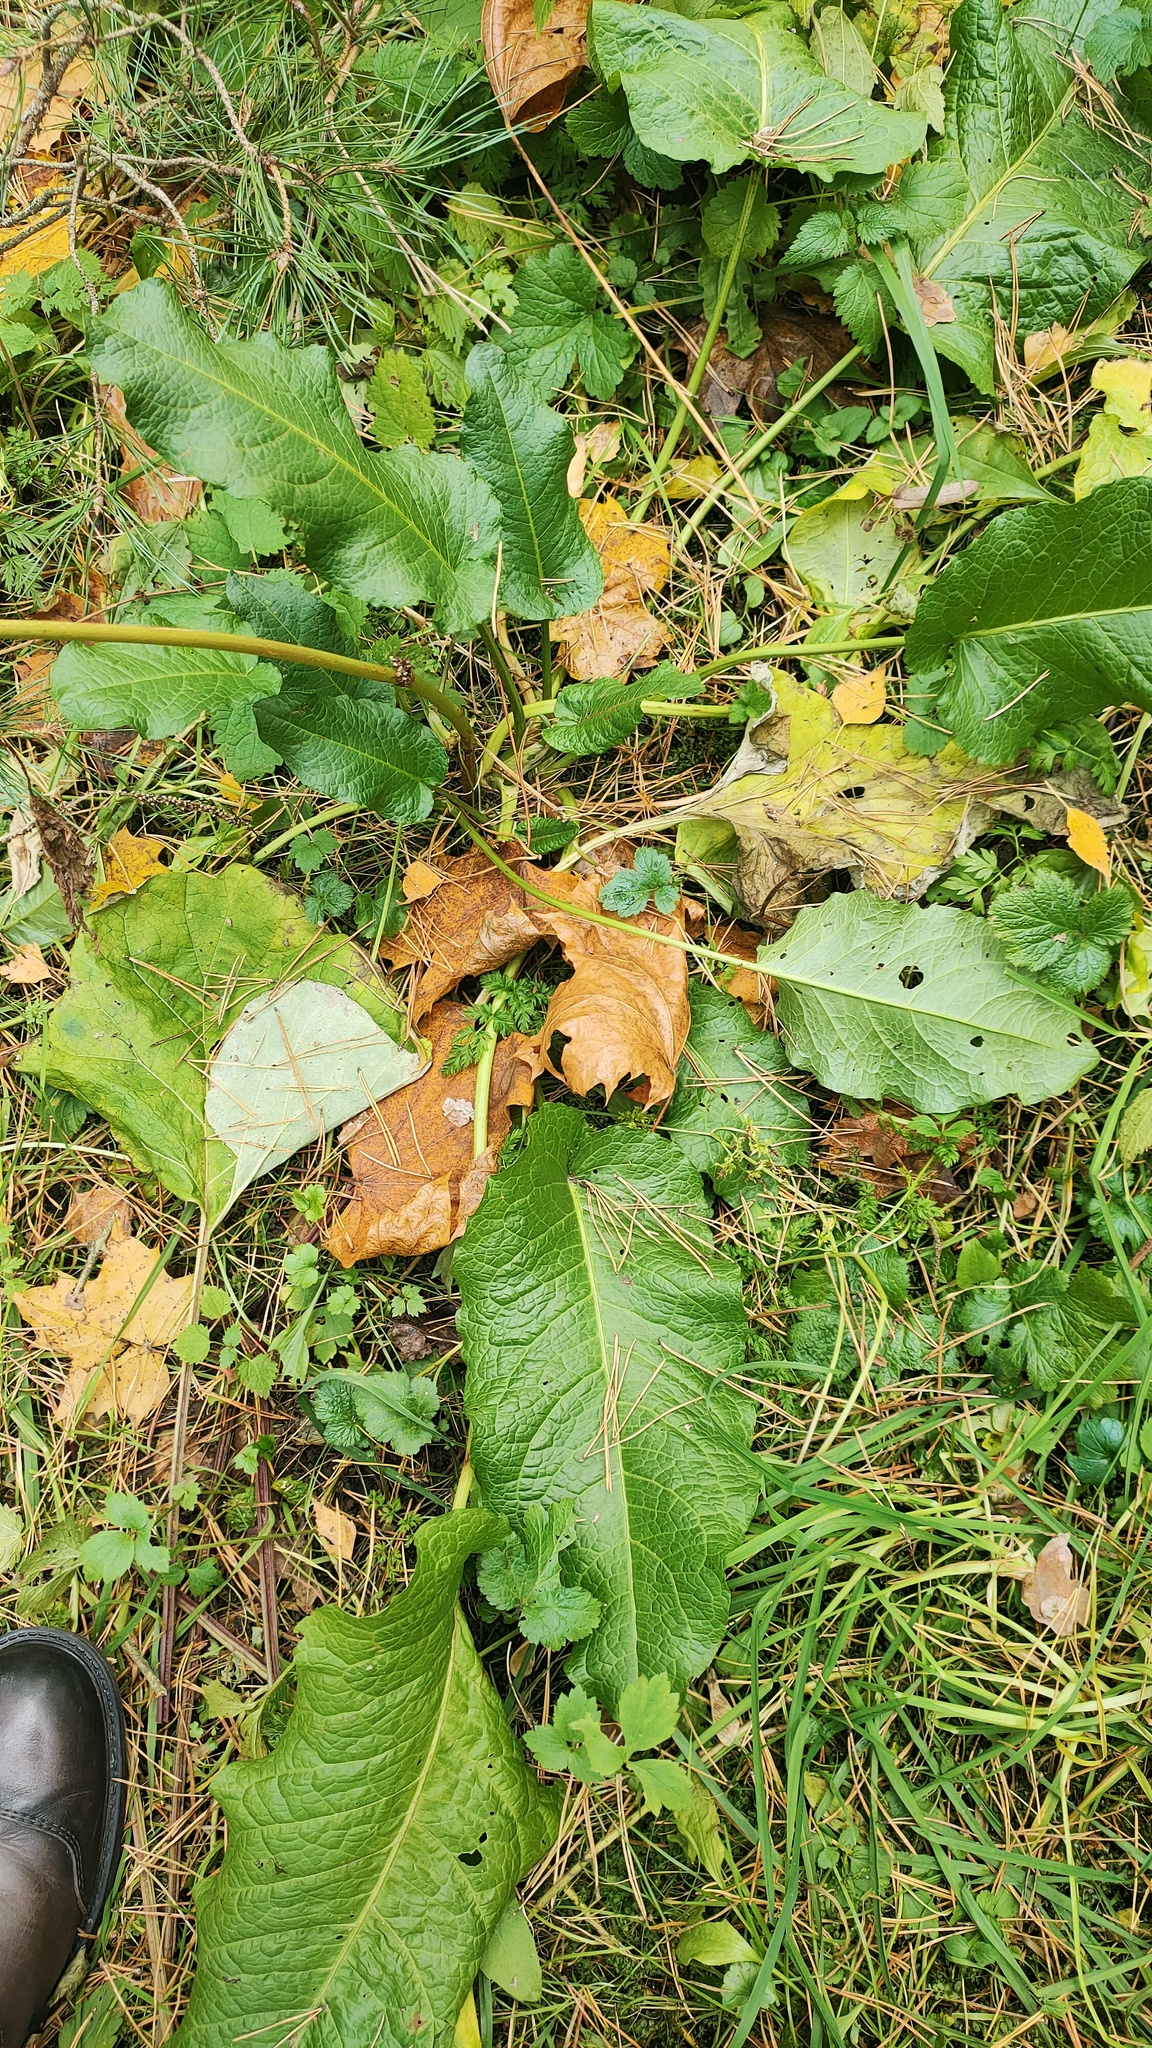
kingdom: Plantae
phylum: Tracheophyta
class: Magnoliopsida
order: Caryophyllales
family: Polygonaceae
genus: Rumex
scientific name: Rumex obtusifolius
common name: Bitter dock
